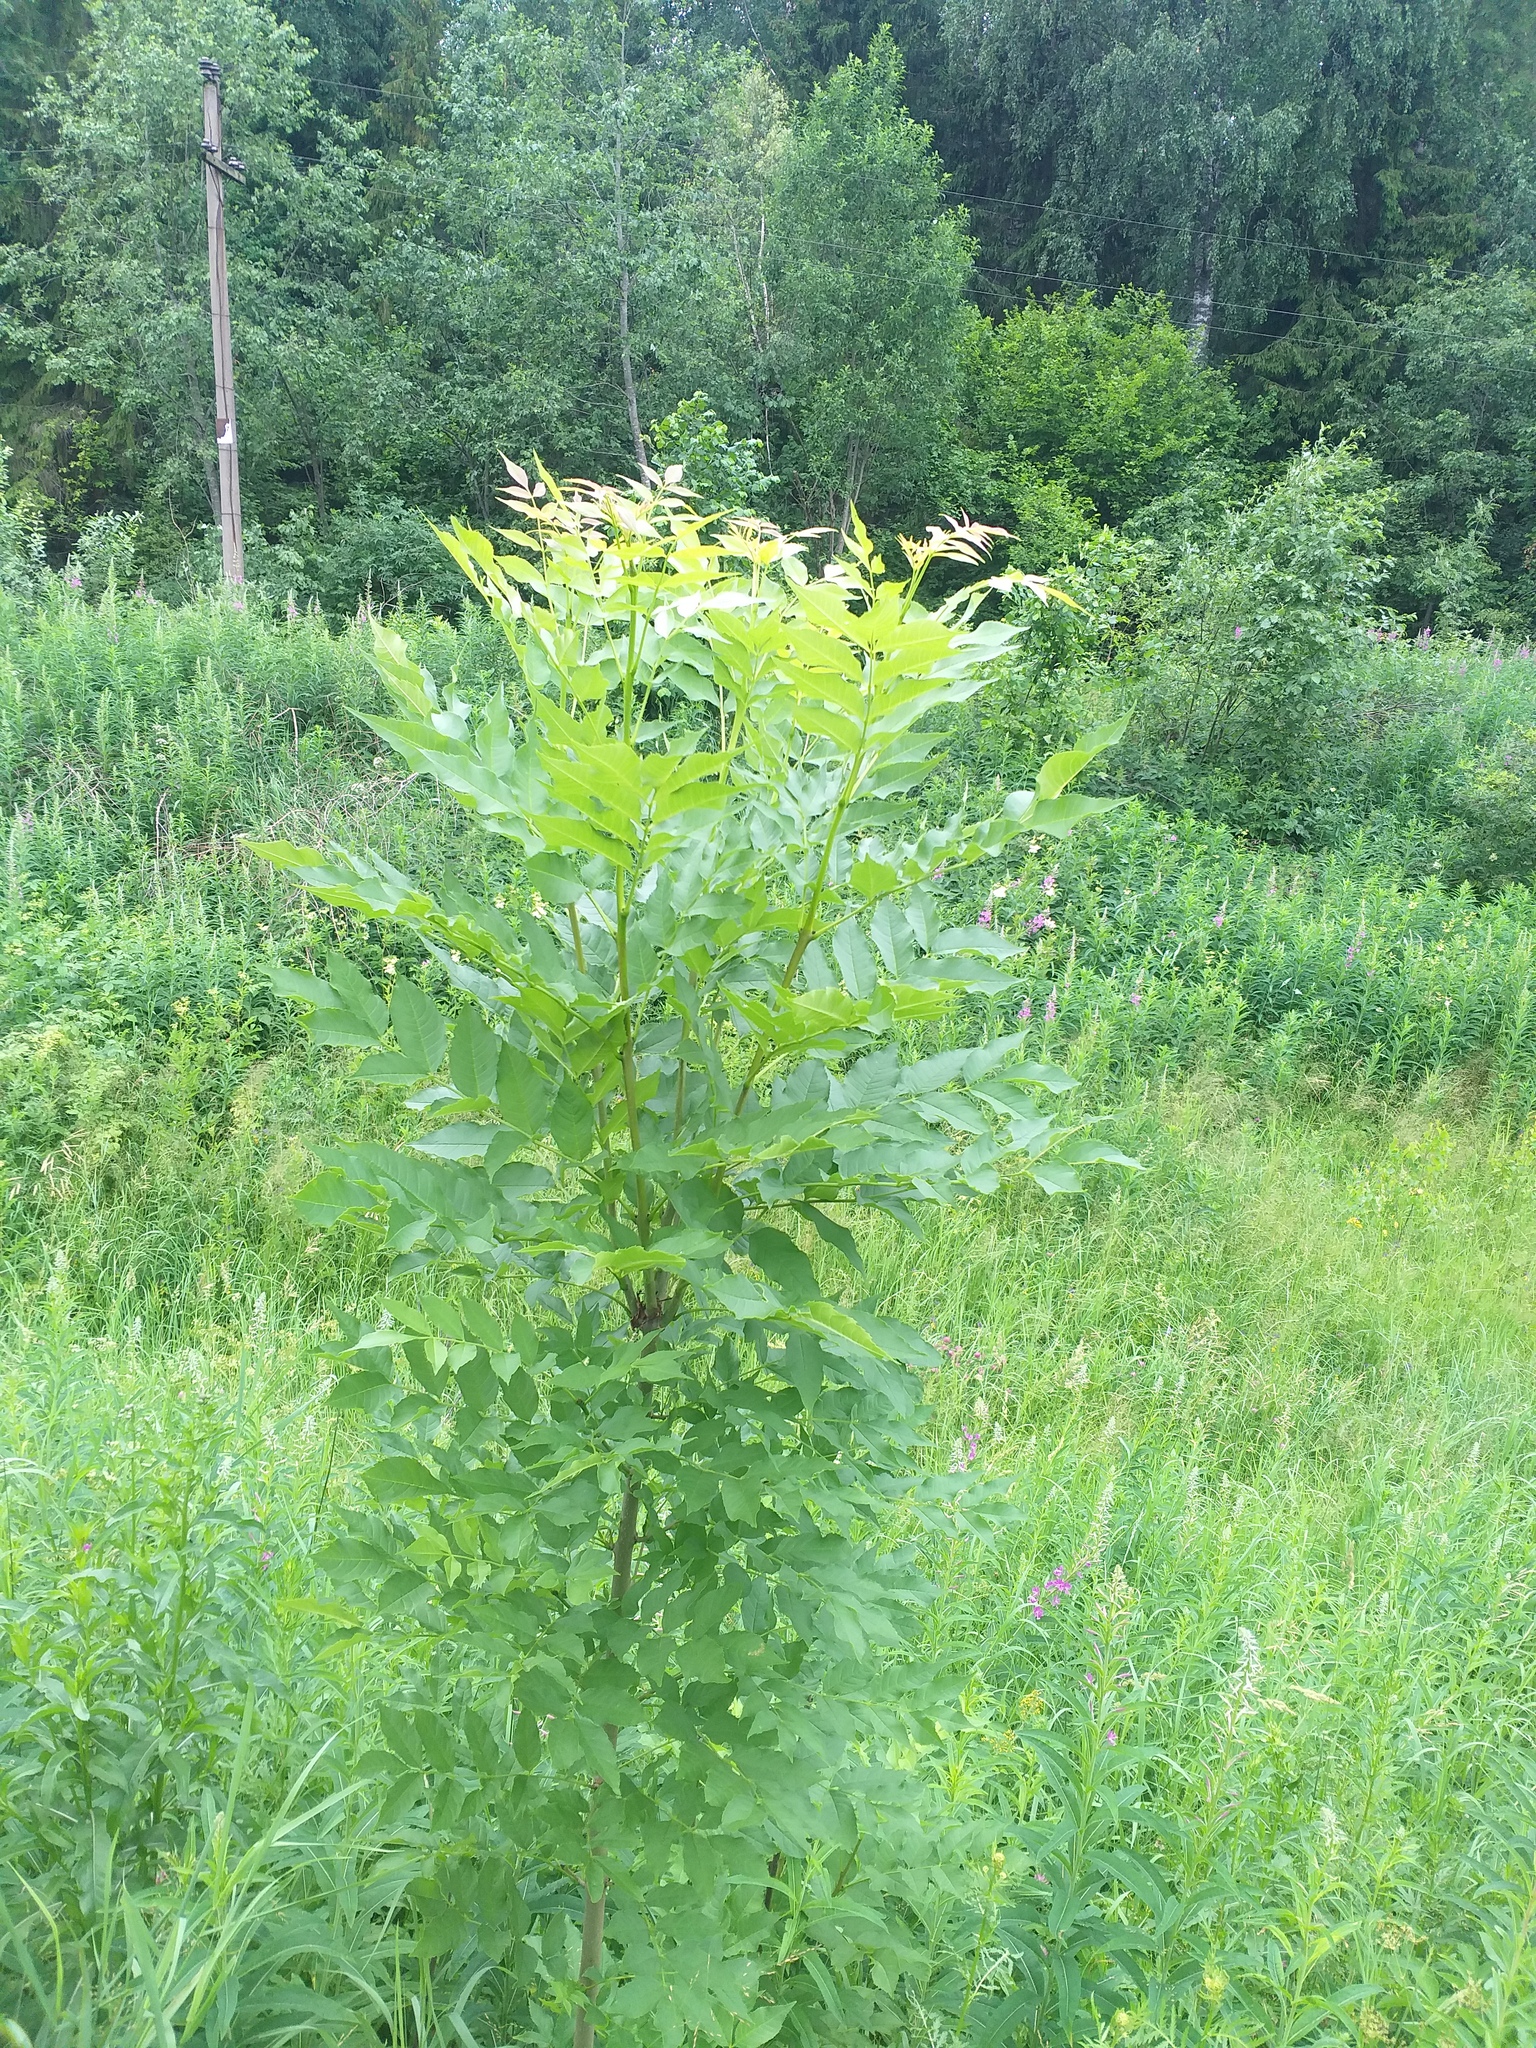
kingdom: Plantae
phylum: Tracheophyta
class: Magnoliopsida
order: Lamiales
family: Oleaceae
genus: Fraxinus
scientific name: Fraxinus excelsior
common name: European ash
